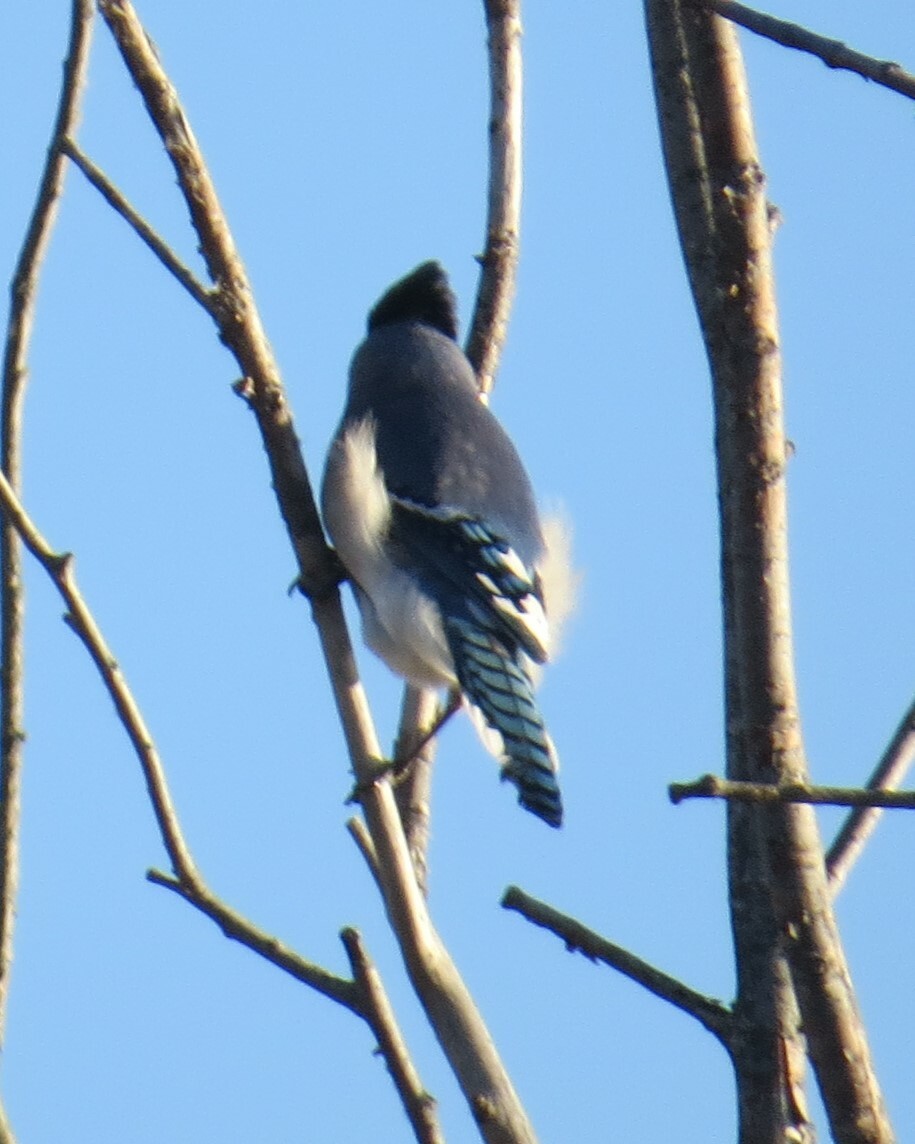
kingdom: Animalia
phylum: Chordata
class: Aves
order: Passeriformes
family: Corvidae
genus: Cyanocitta
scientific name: Cyanocitta cristata
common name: Blue jay
